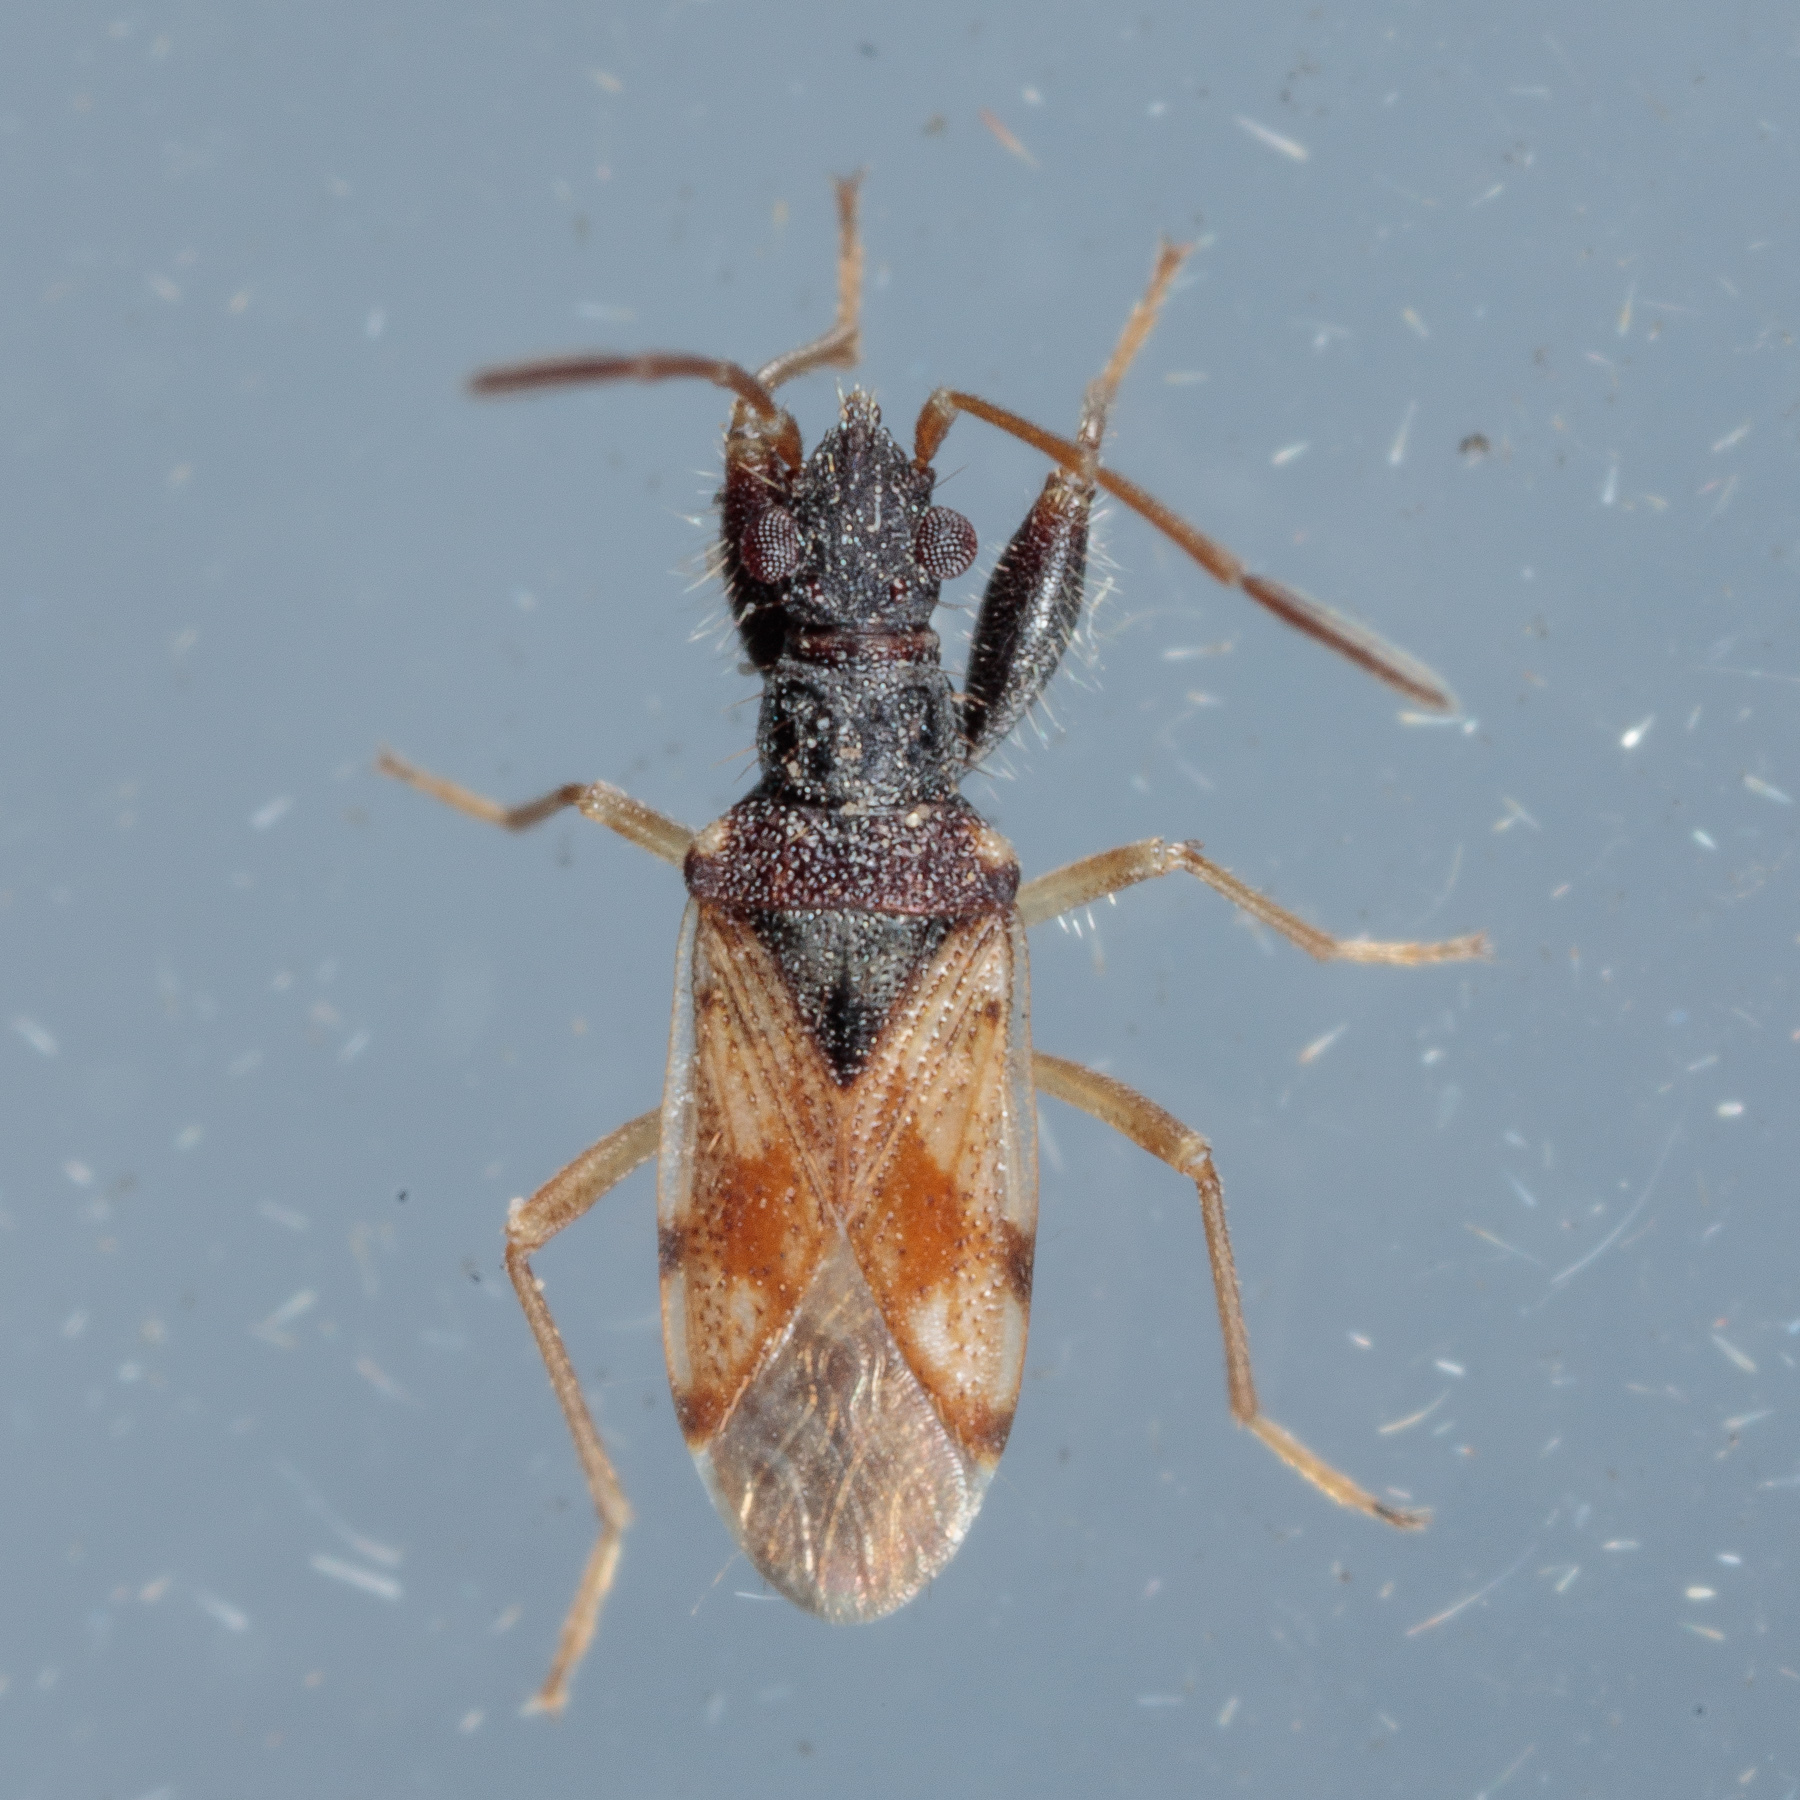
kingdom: Animalia
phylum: Arthropoda
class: Insecta
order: Hemiptera
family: Rhyparochromidae
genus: Pseudopamera
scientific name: Pseudopamera setosa
